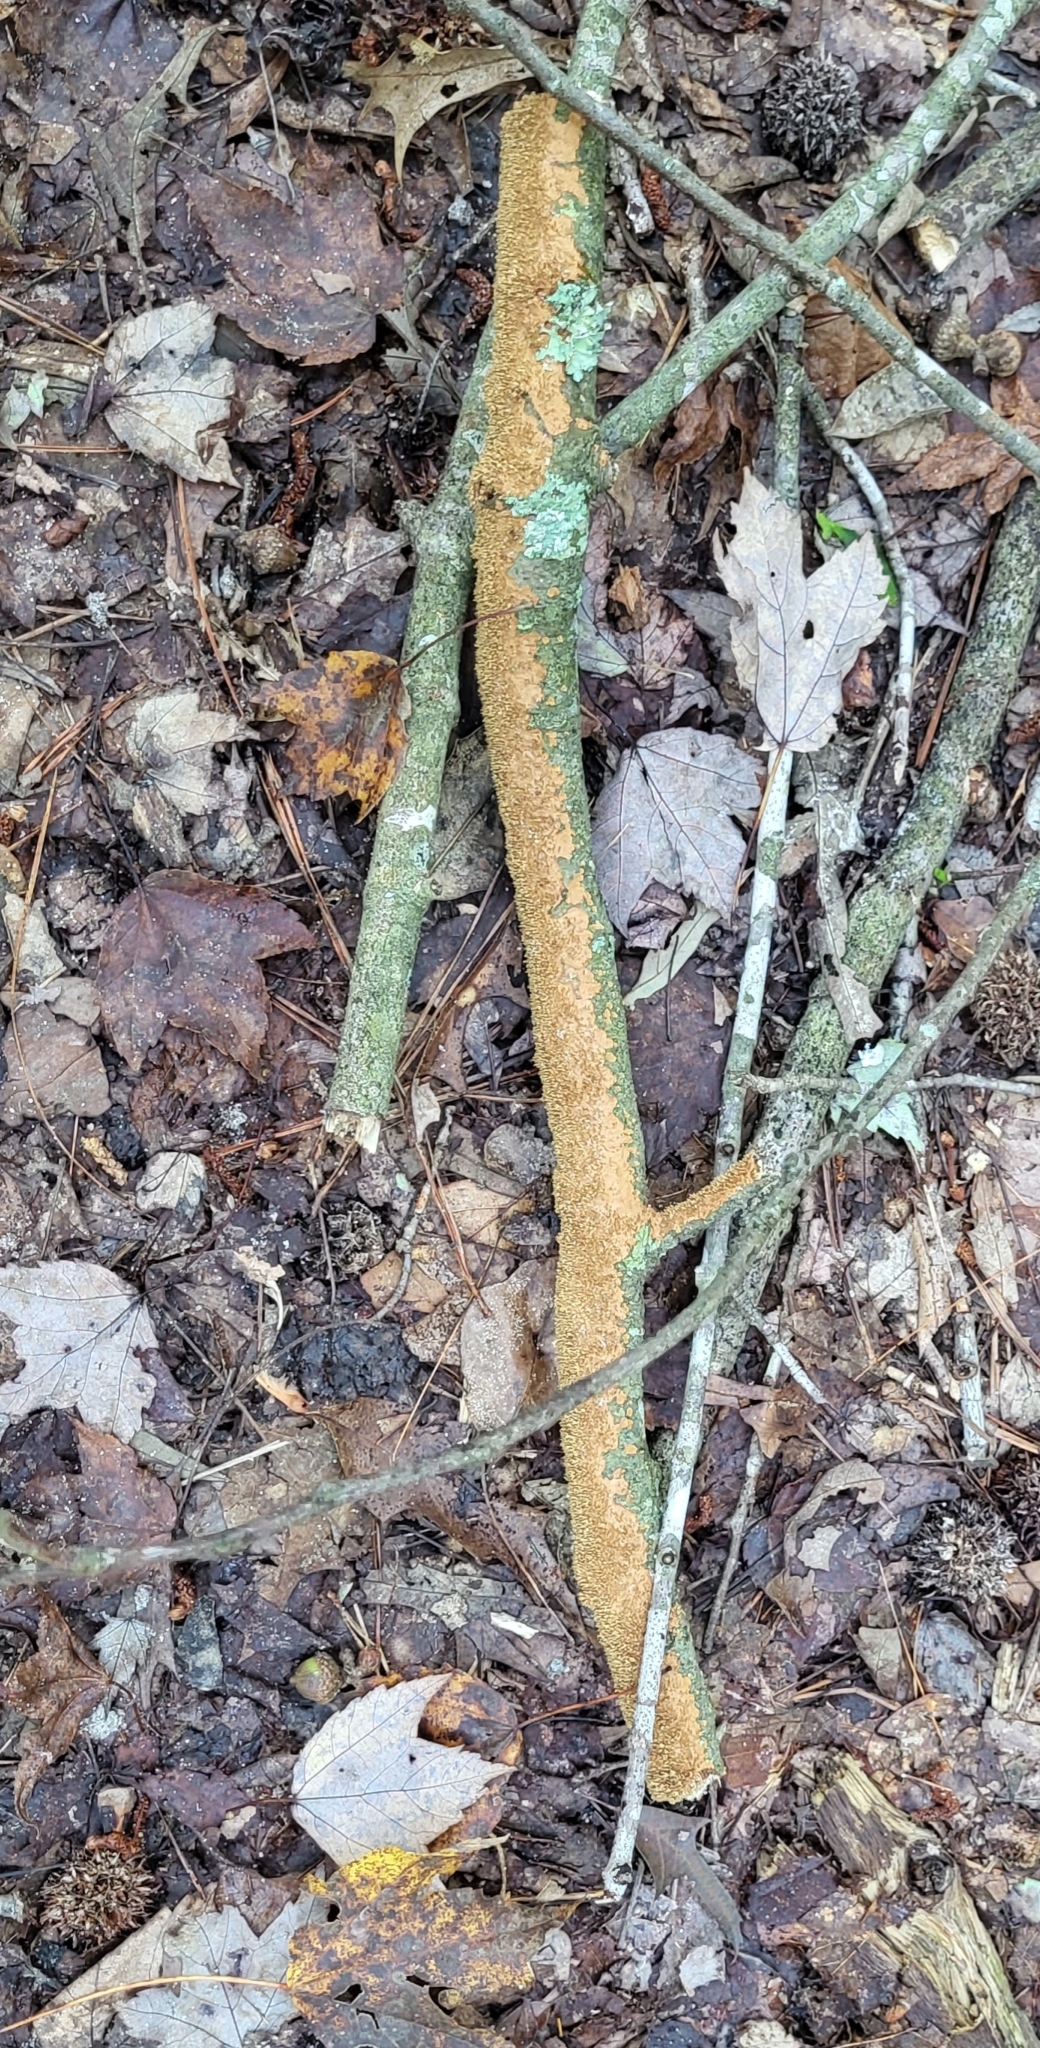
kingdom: Fungi
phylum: Basidiomycota
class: Agaricomycetes
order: Hymenochaetales
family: Hymenochaetaceae
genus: Hydnoporia
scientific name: Hydnoporia olivacea
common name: Brown-toothed crust fungus
